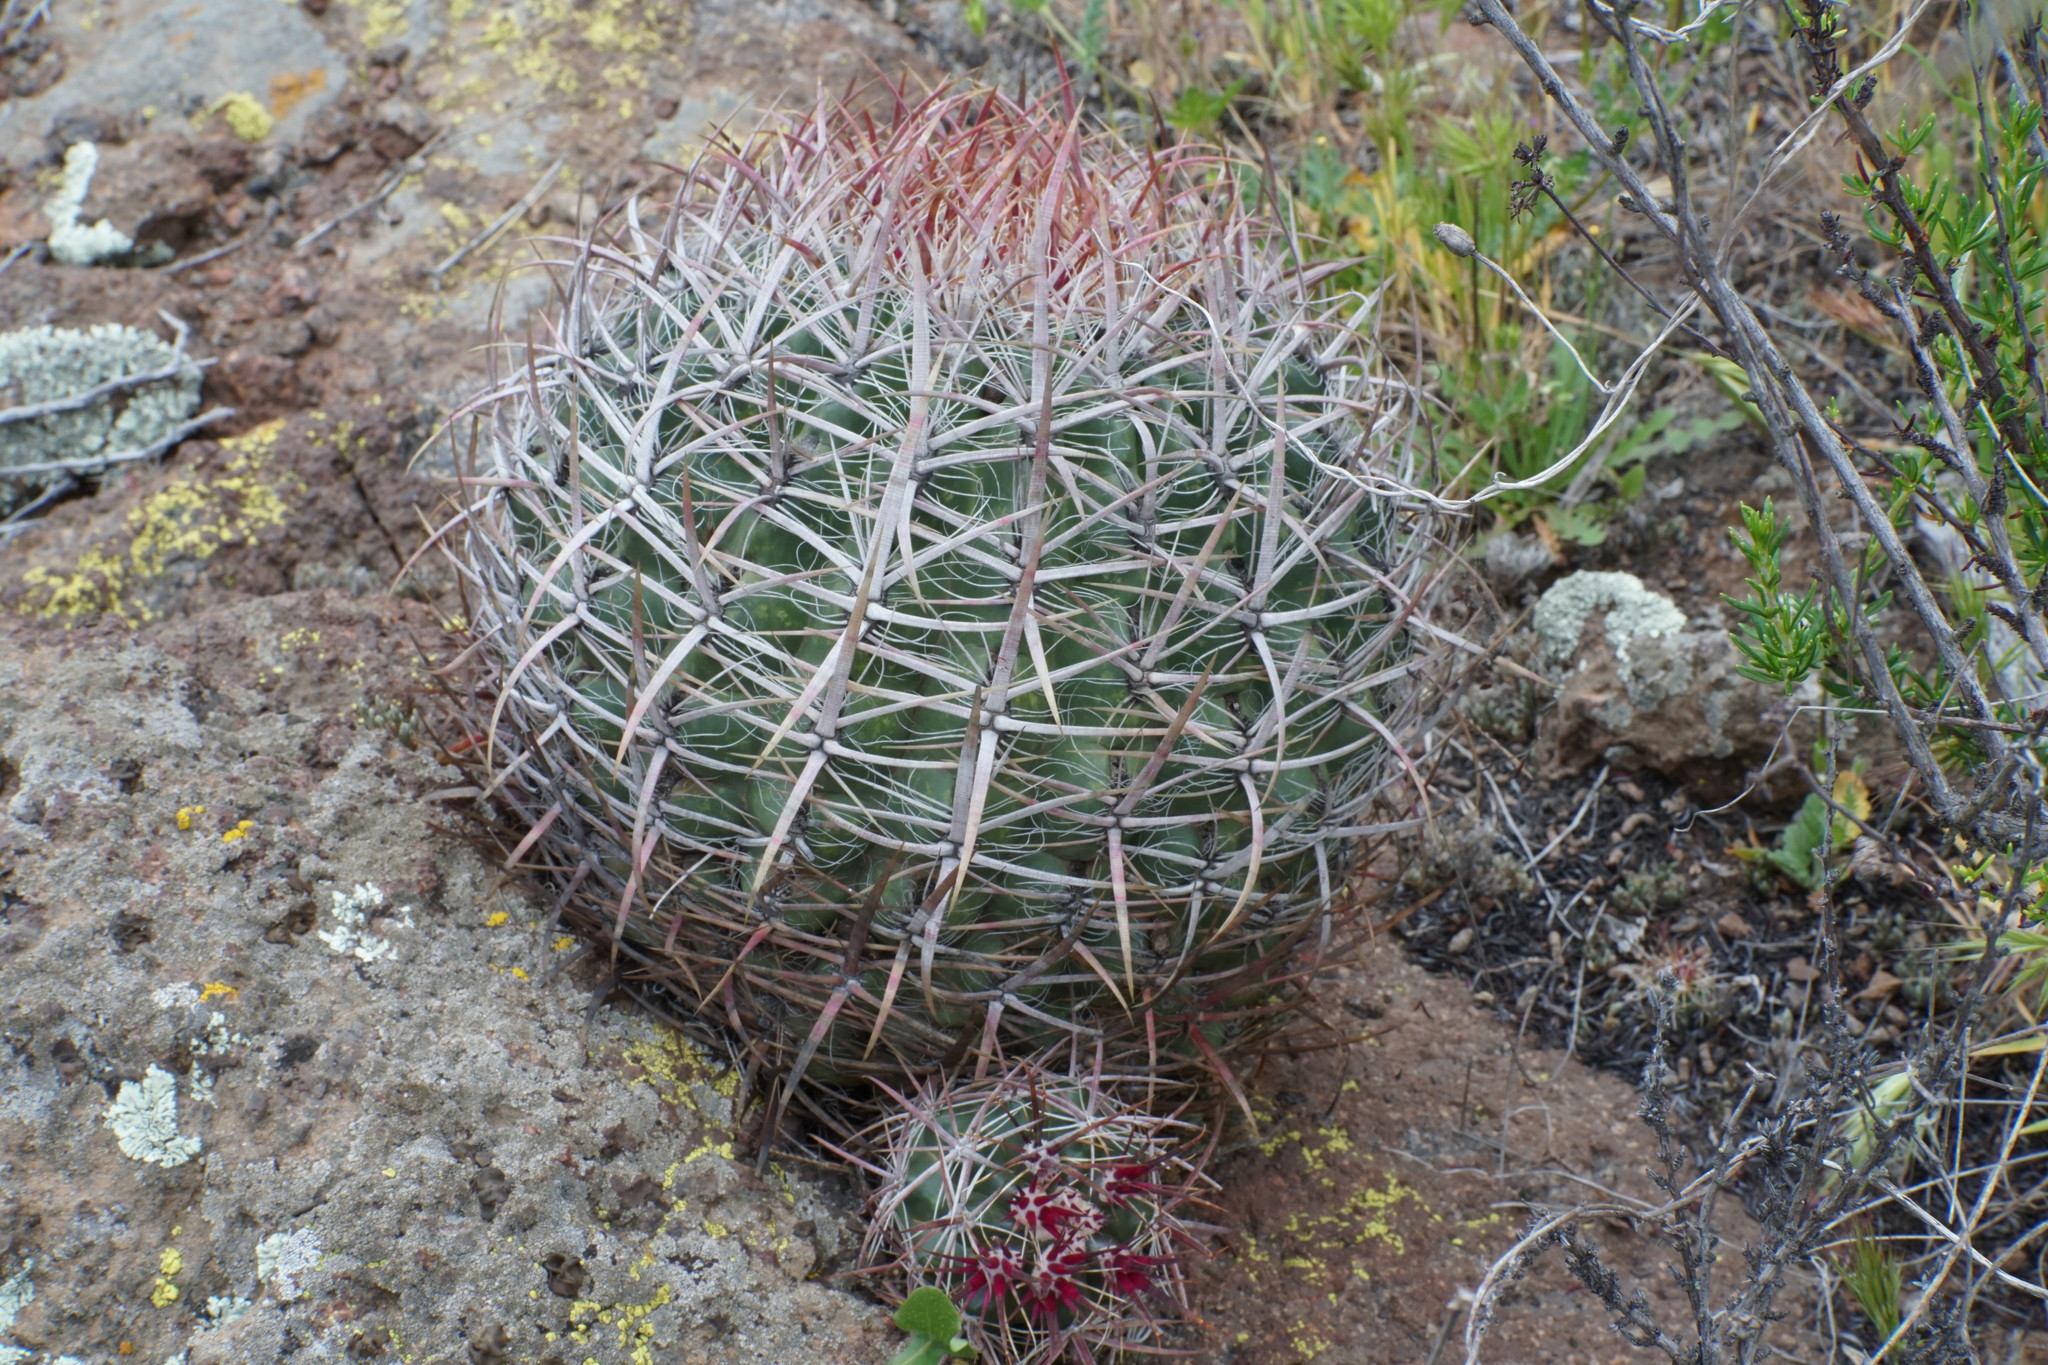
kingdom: Plantae
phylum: Tracheophyta
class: Magnoliopsida
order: Caryophyllales
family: Cactaceae
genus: Ferocactus
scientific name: Ferocactus viridescens
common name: San diego barrel cactus
